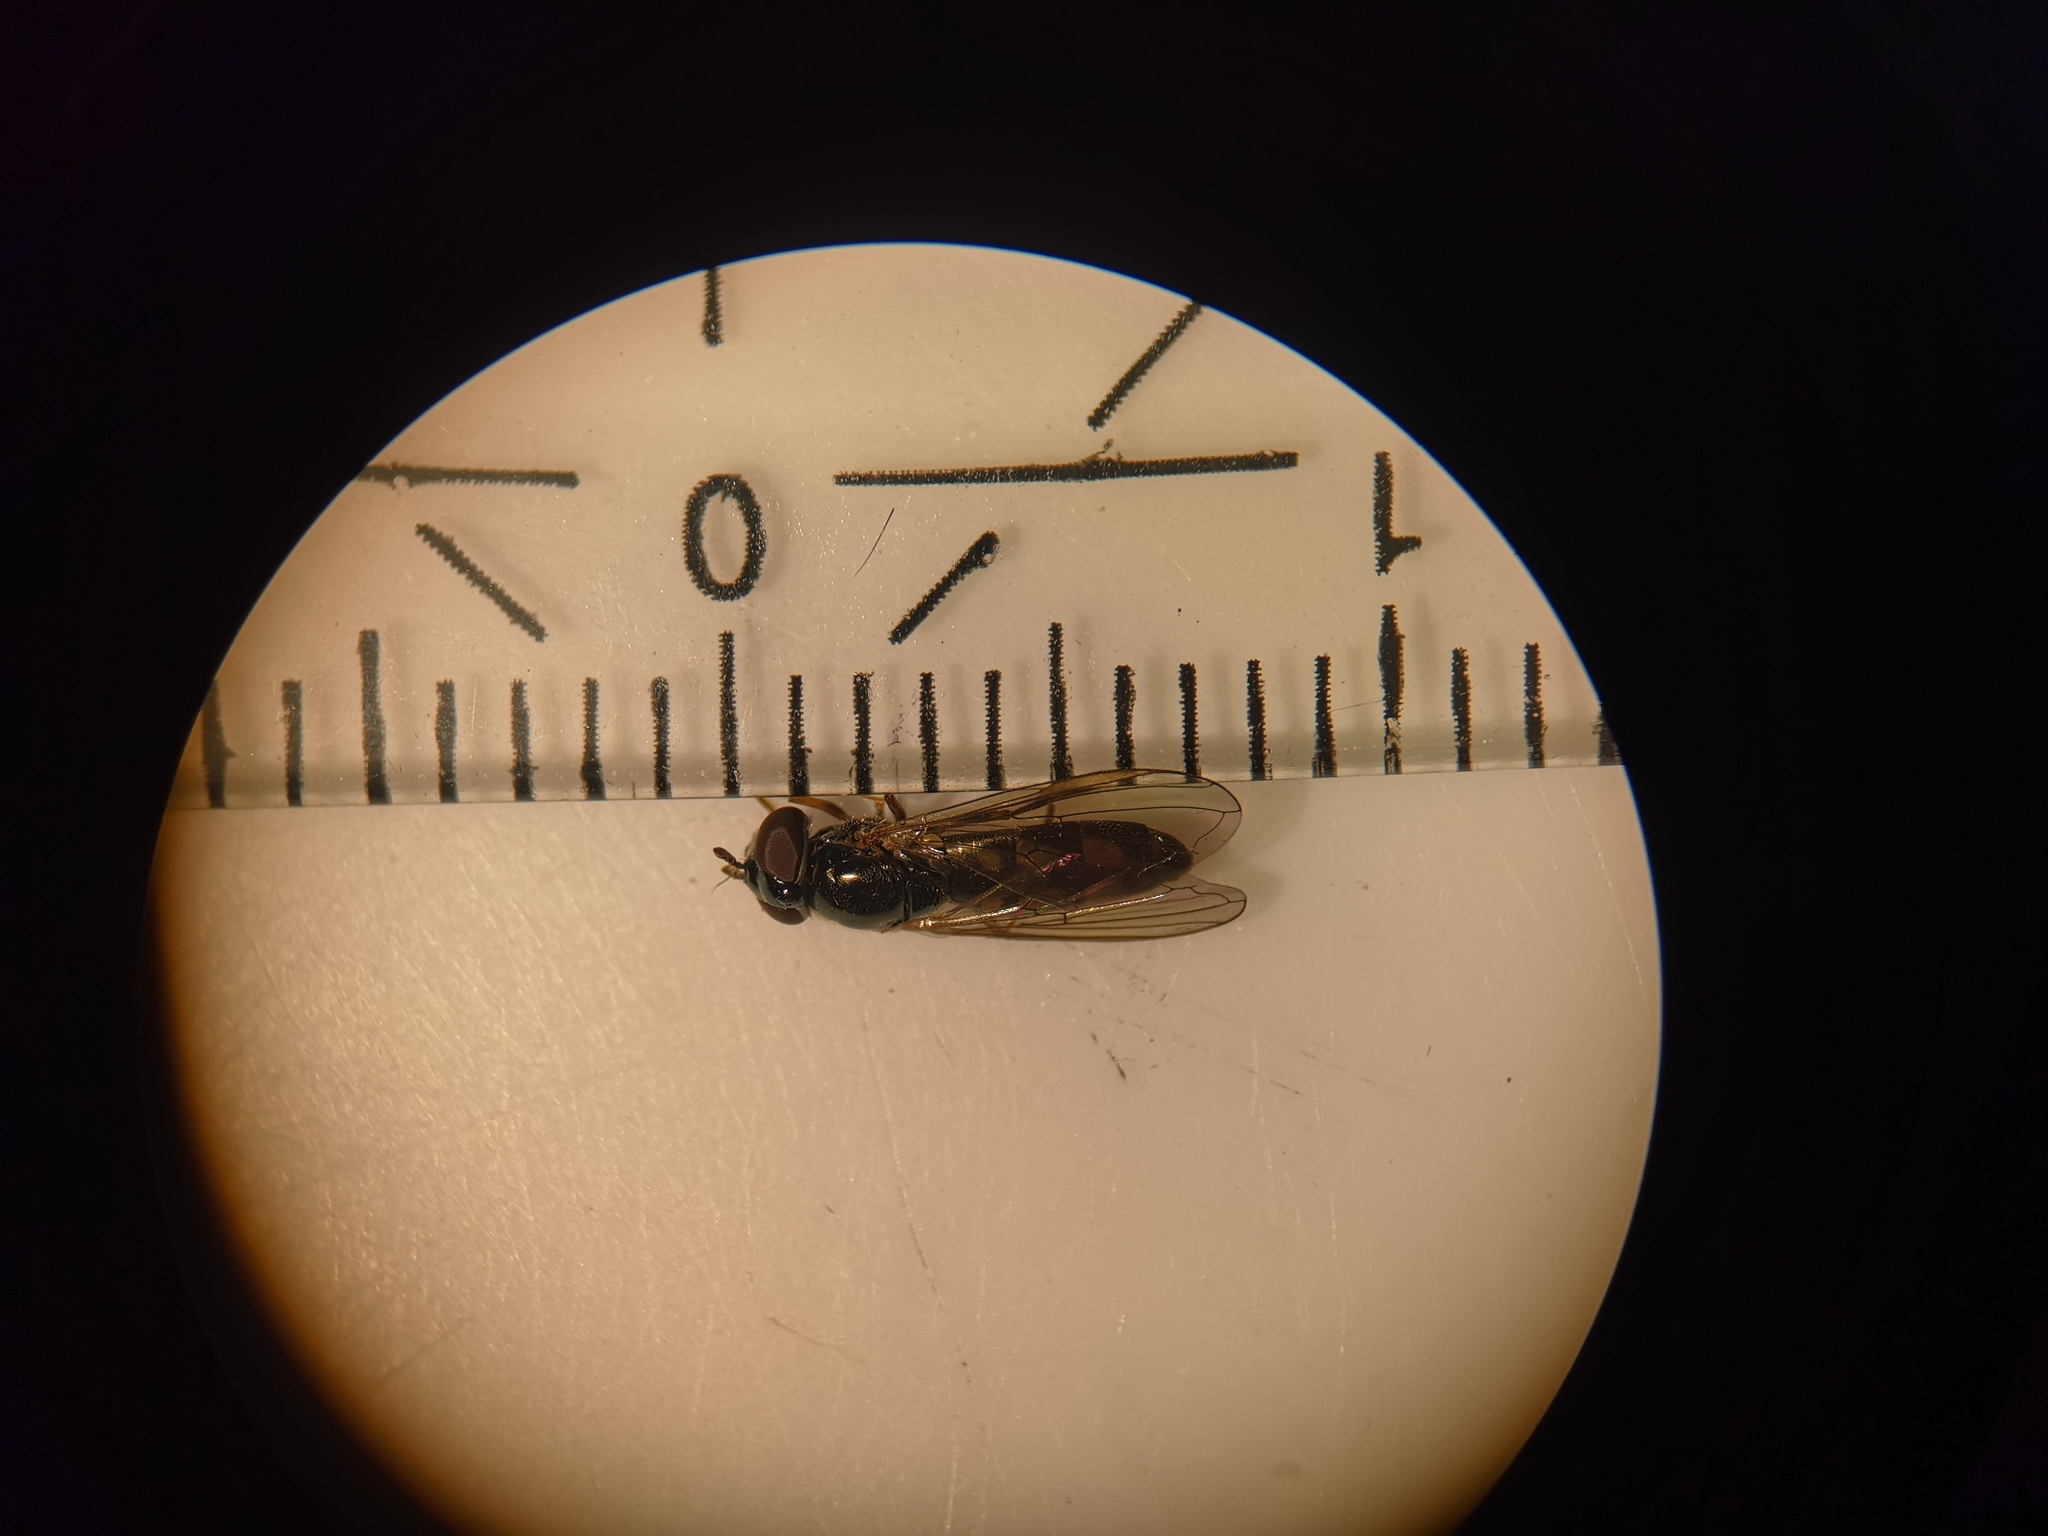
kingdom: Animalia
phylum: Arthropoda
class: Insecta
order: Diptera
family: Syrphidae
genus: Melanostoma
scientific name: Melanostoma scalare
